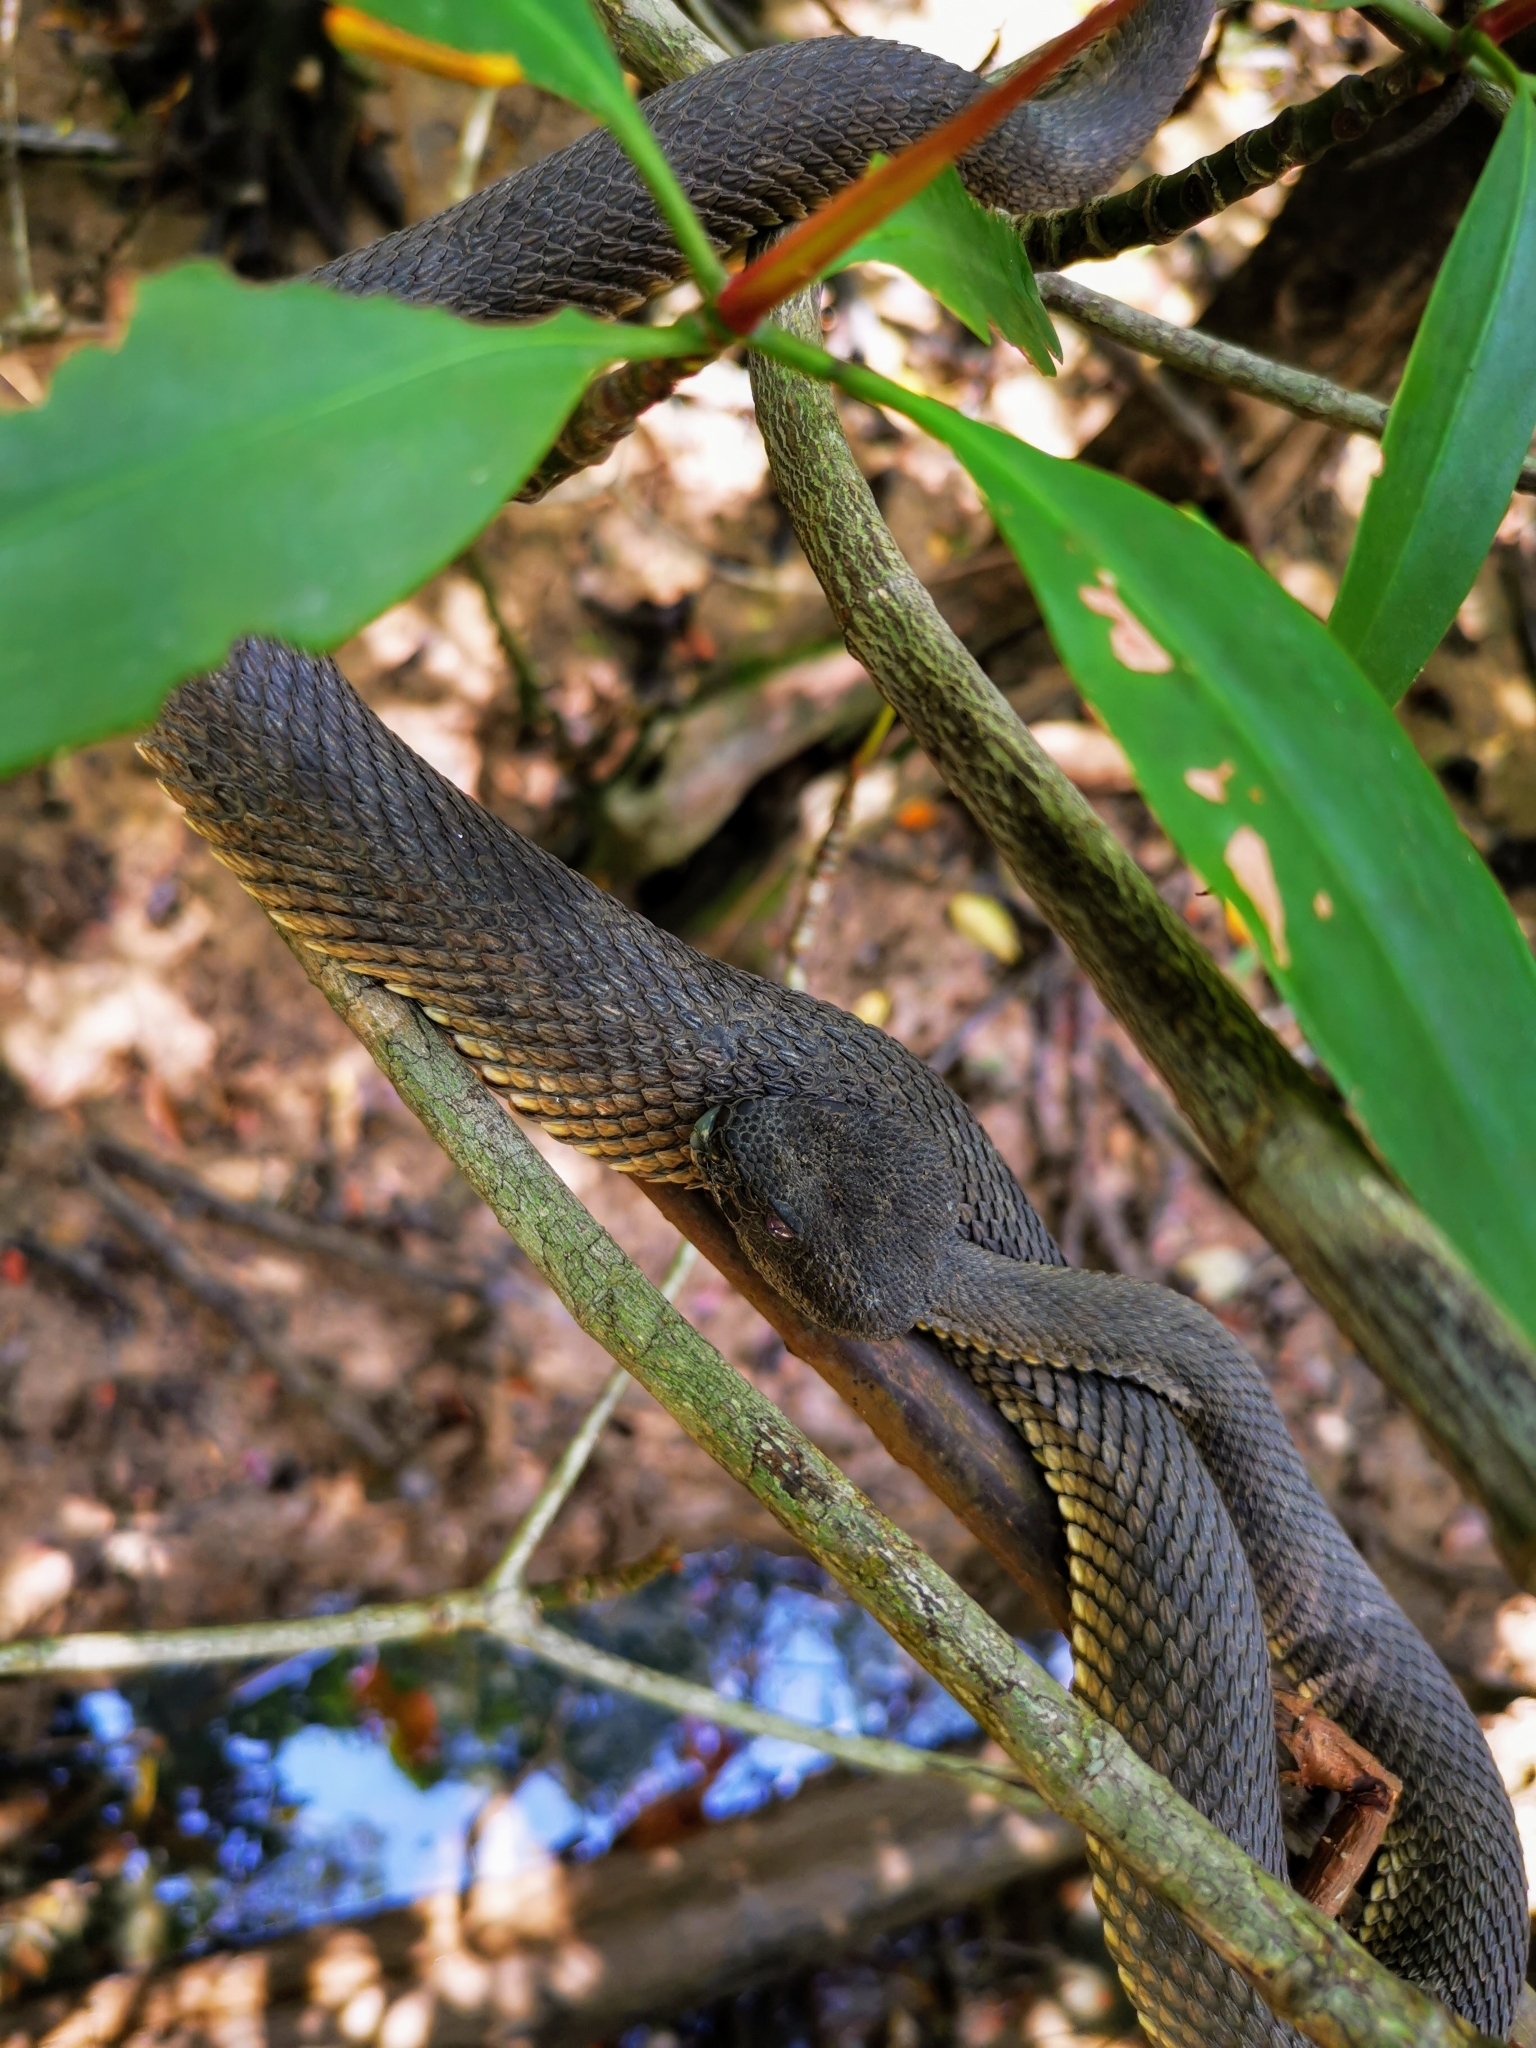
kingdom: Animalia
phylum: Chordata
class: Squamata
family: Viperidae
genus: Trimeresurus
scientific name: Trimeresurus purpureomaculatus
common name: Shore pit viper
